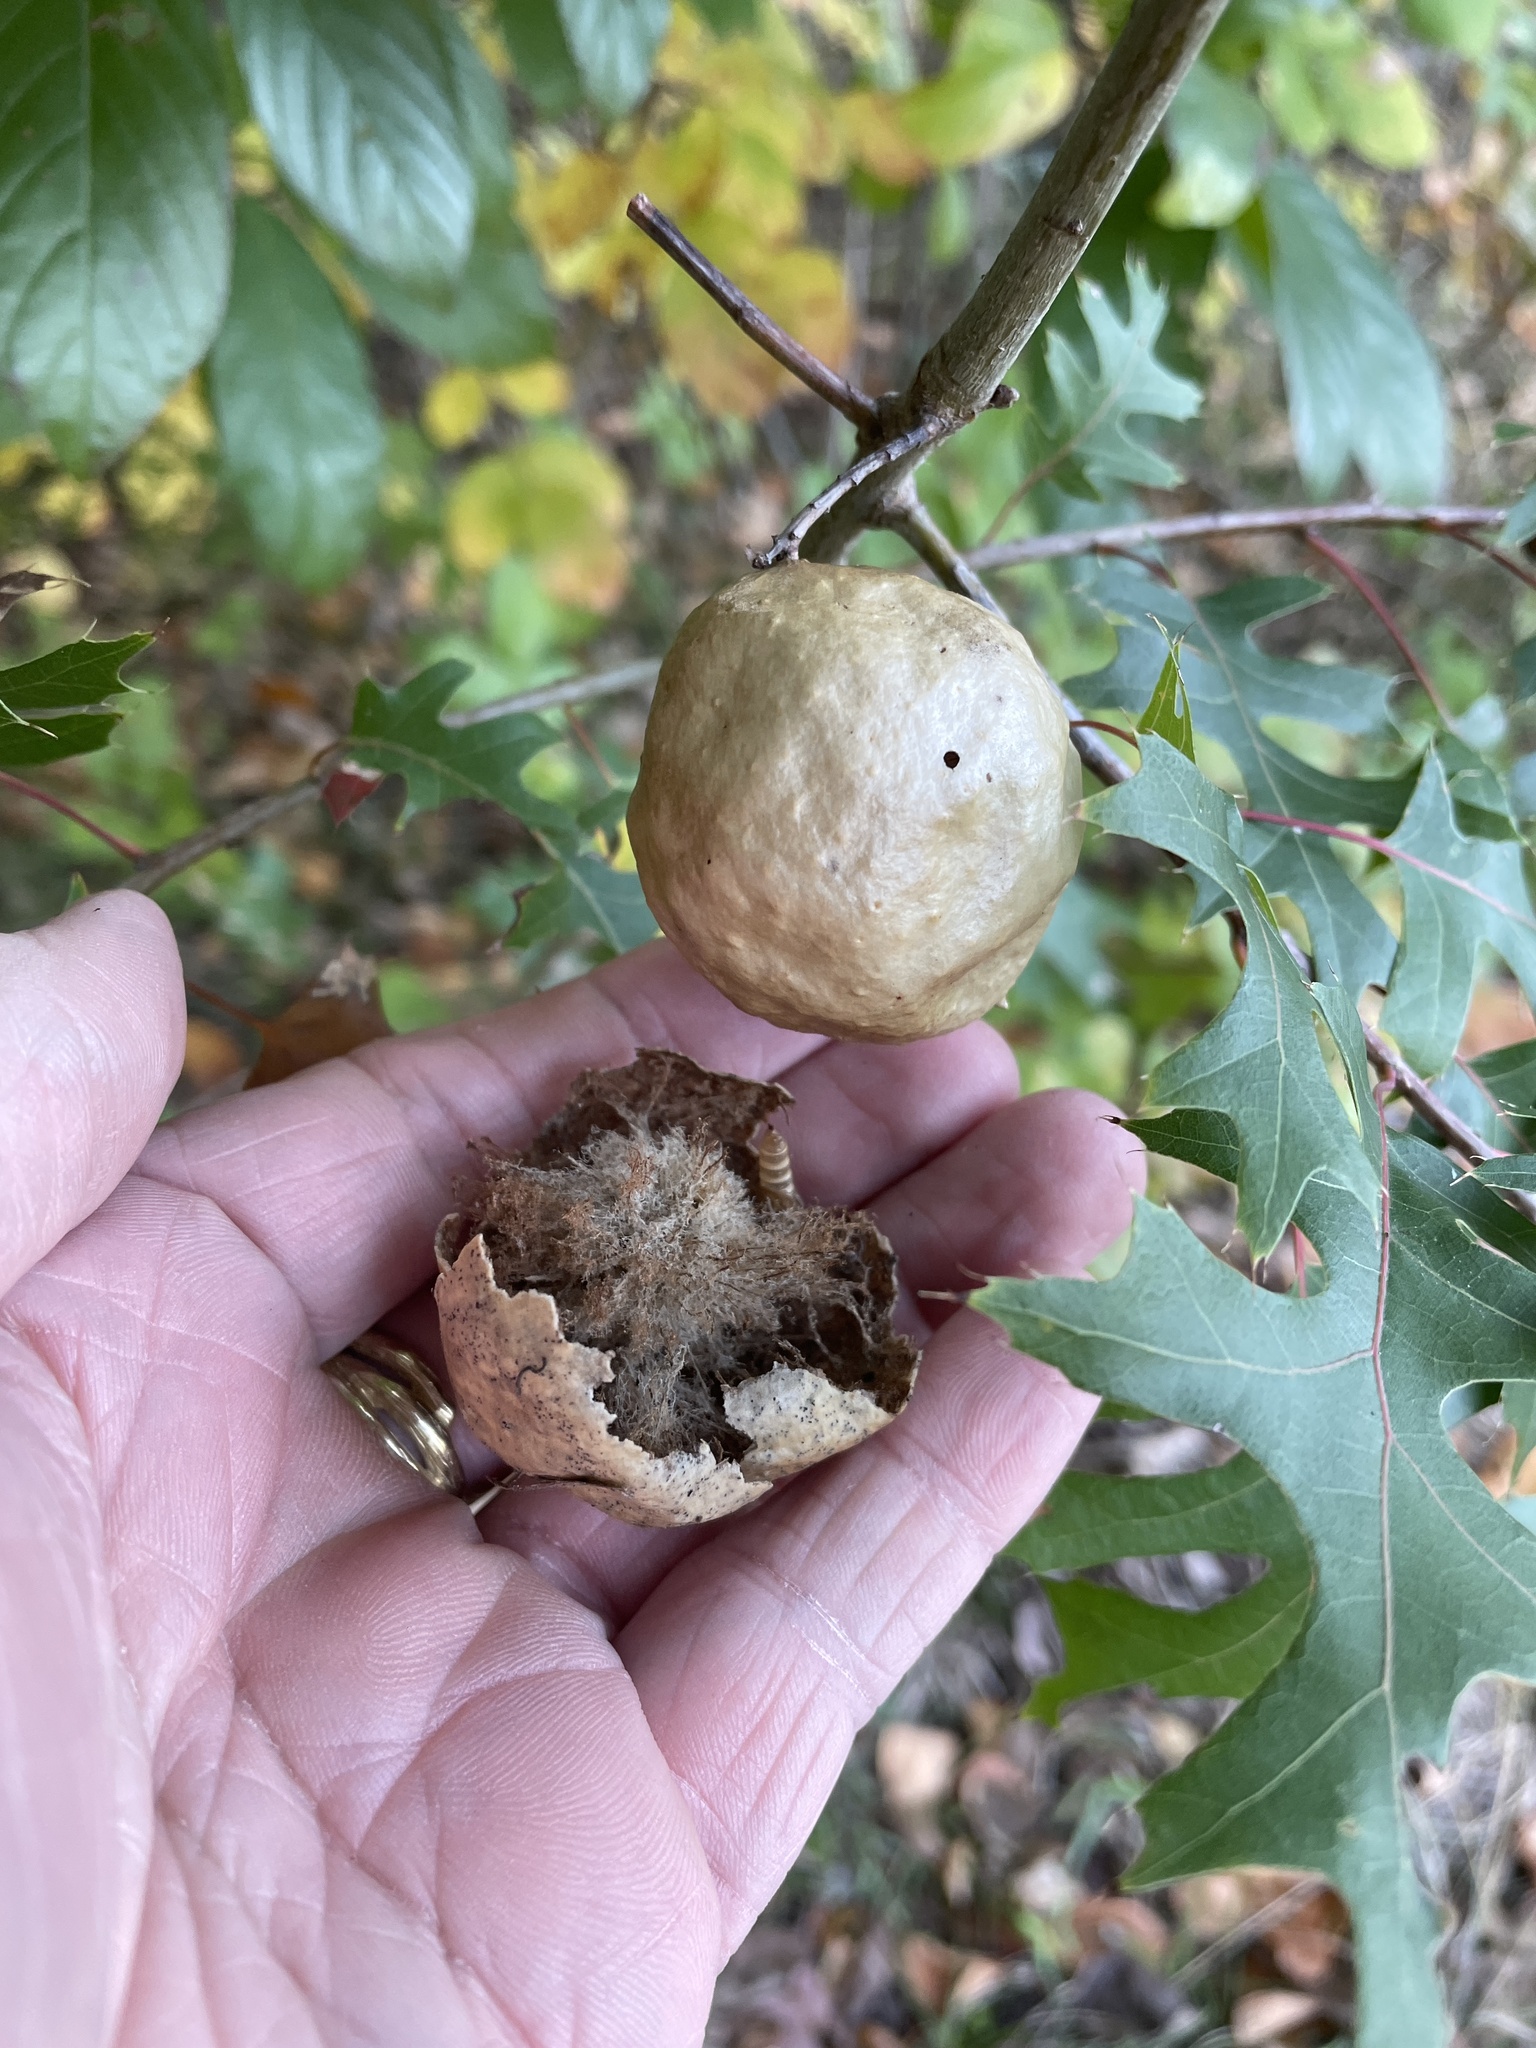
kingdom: Animalia
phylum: Arthropoda
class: Insecta
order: Hymenoptera
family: Cynipidae
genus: Amphibolips
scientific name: Amphibolips
